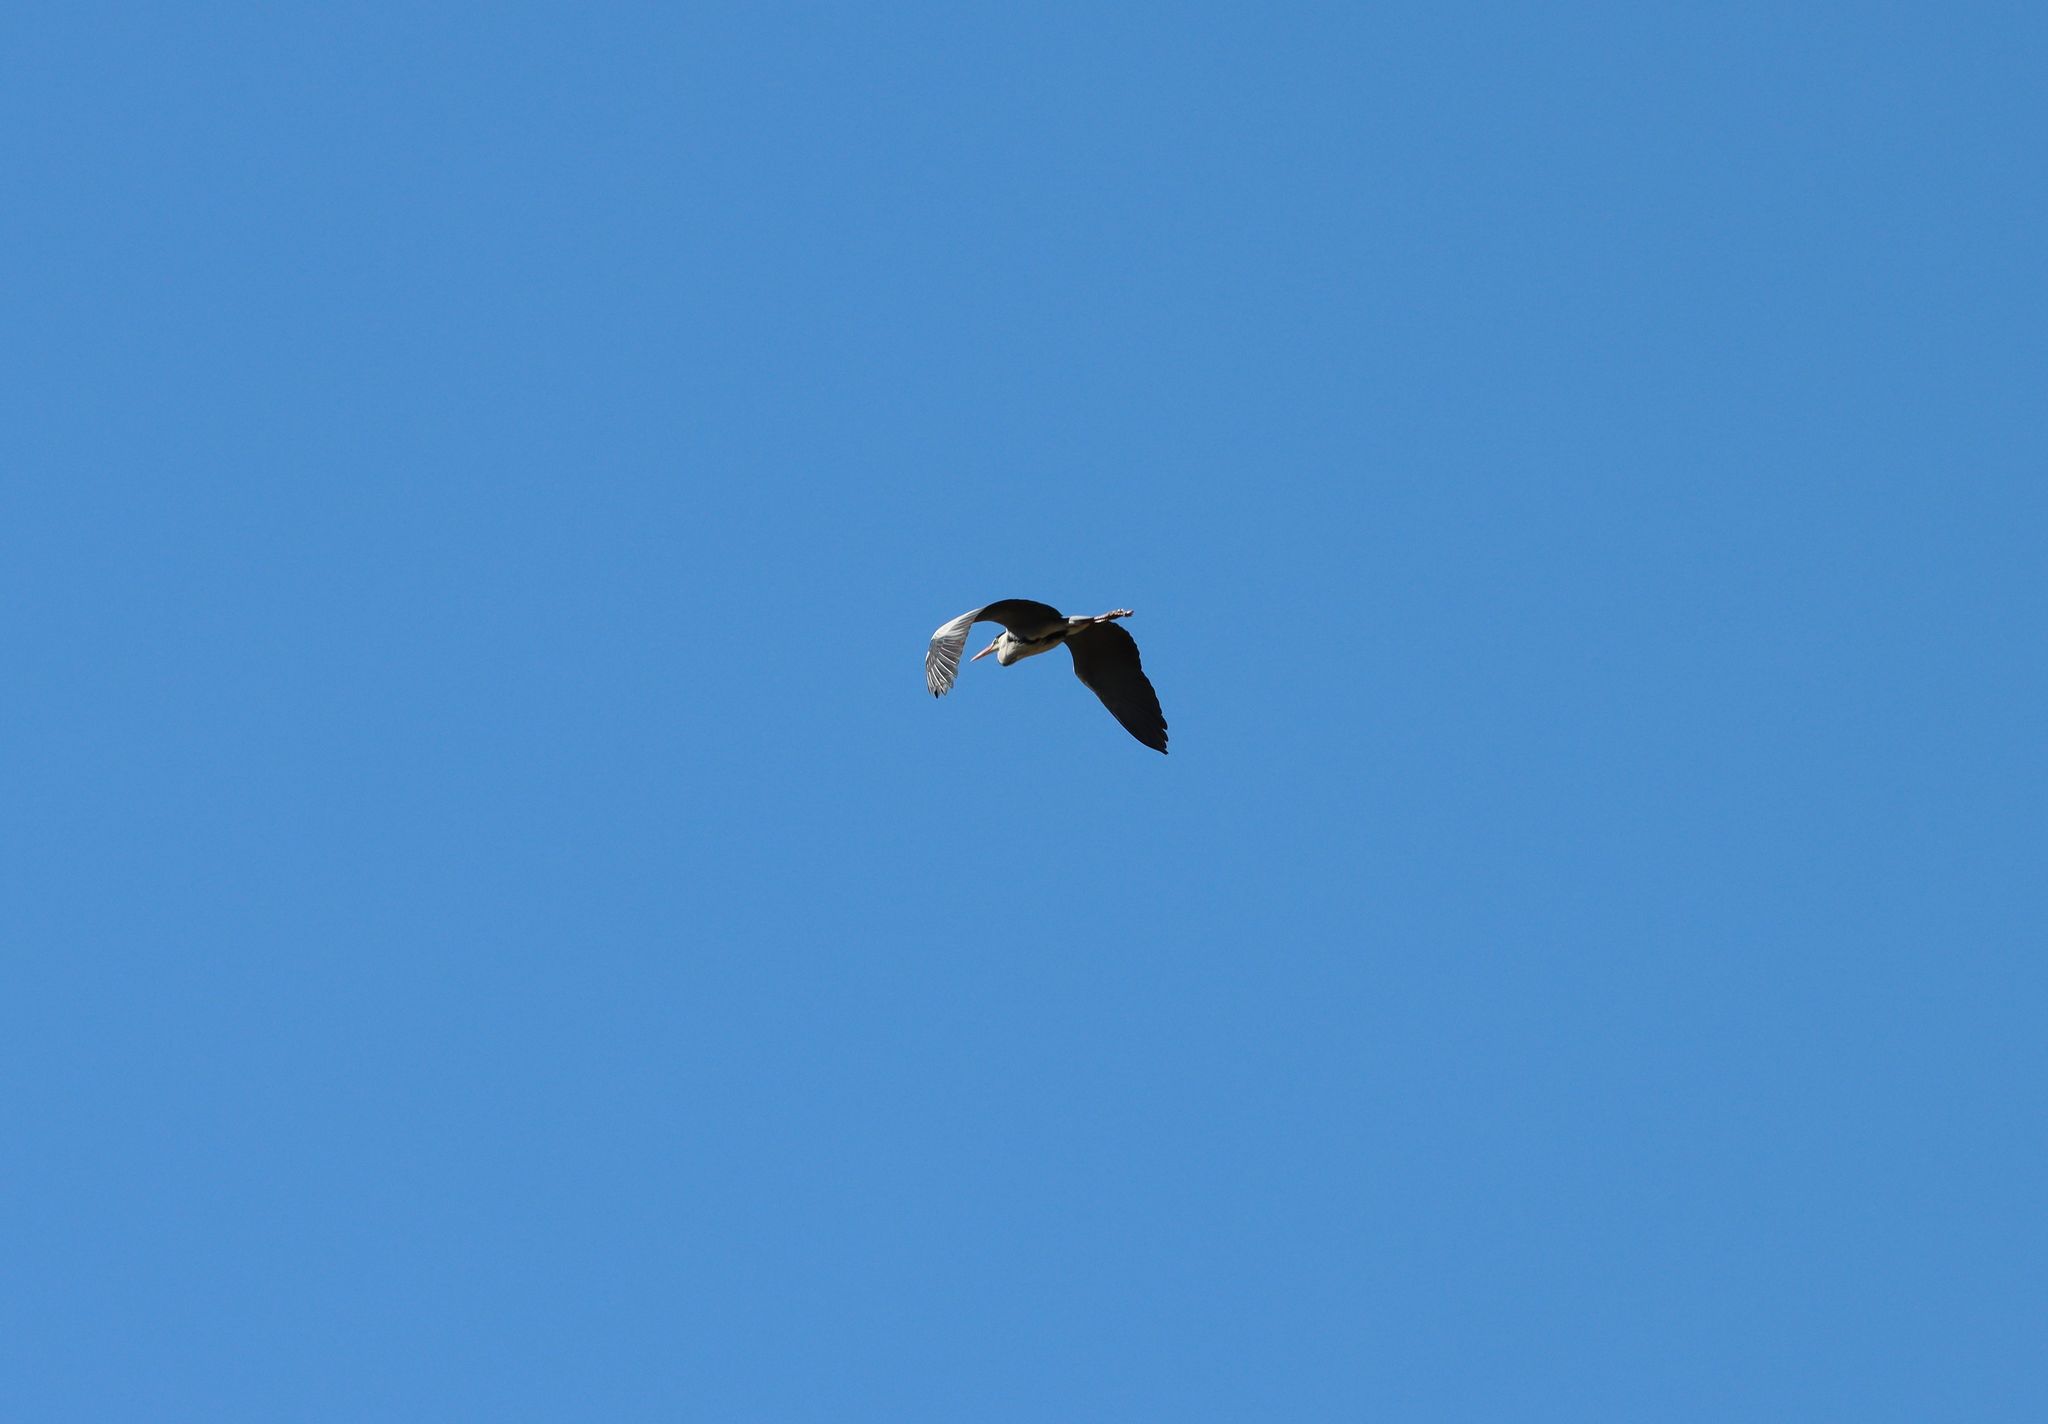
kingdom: Animalia
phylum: Chordata
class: Aves
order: Pelecaniformes
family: Ardeidae
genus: Ardea
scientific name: Ardea cinerea
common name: Grey heron
